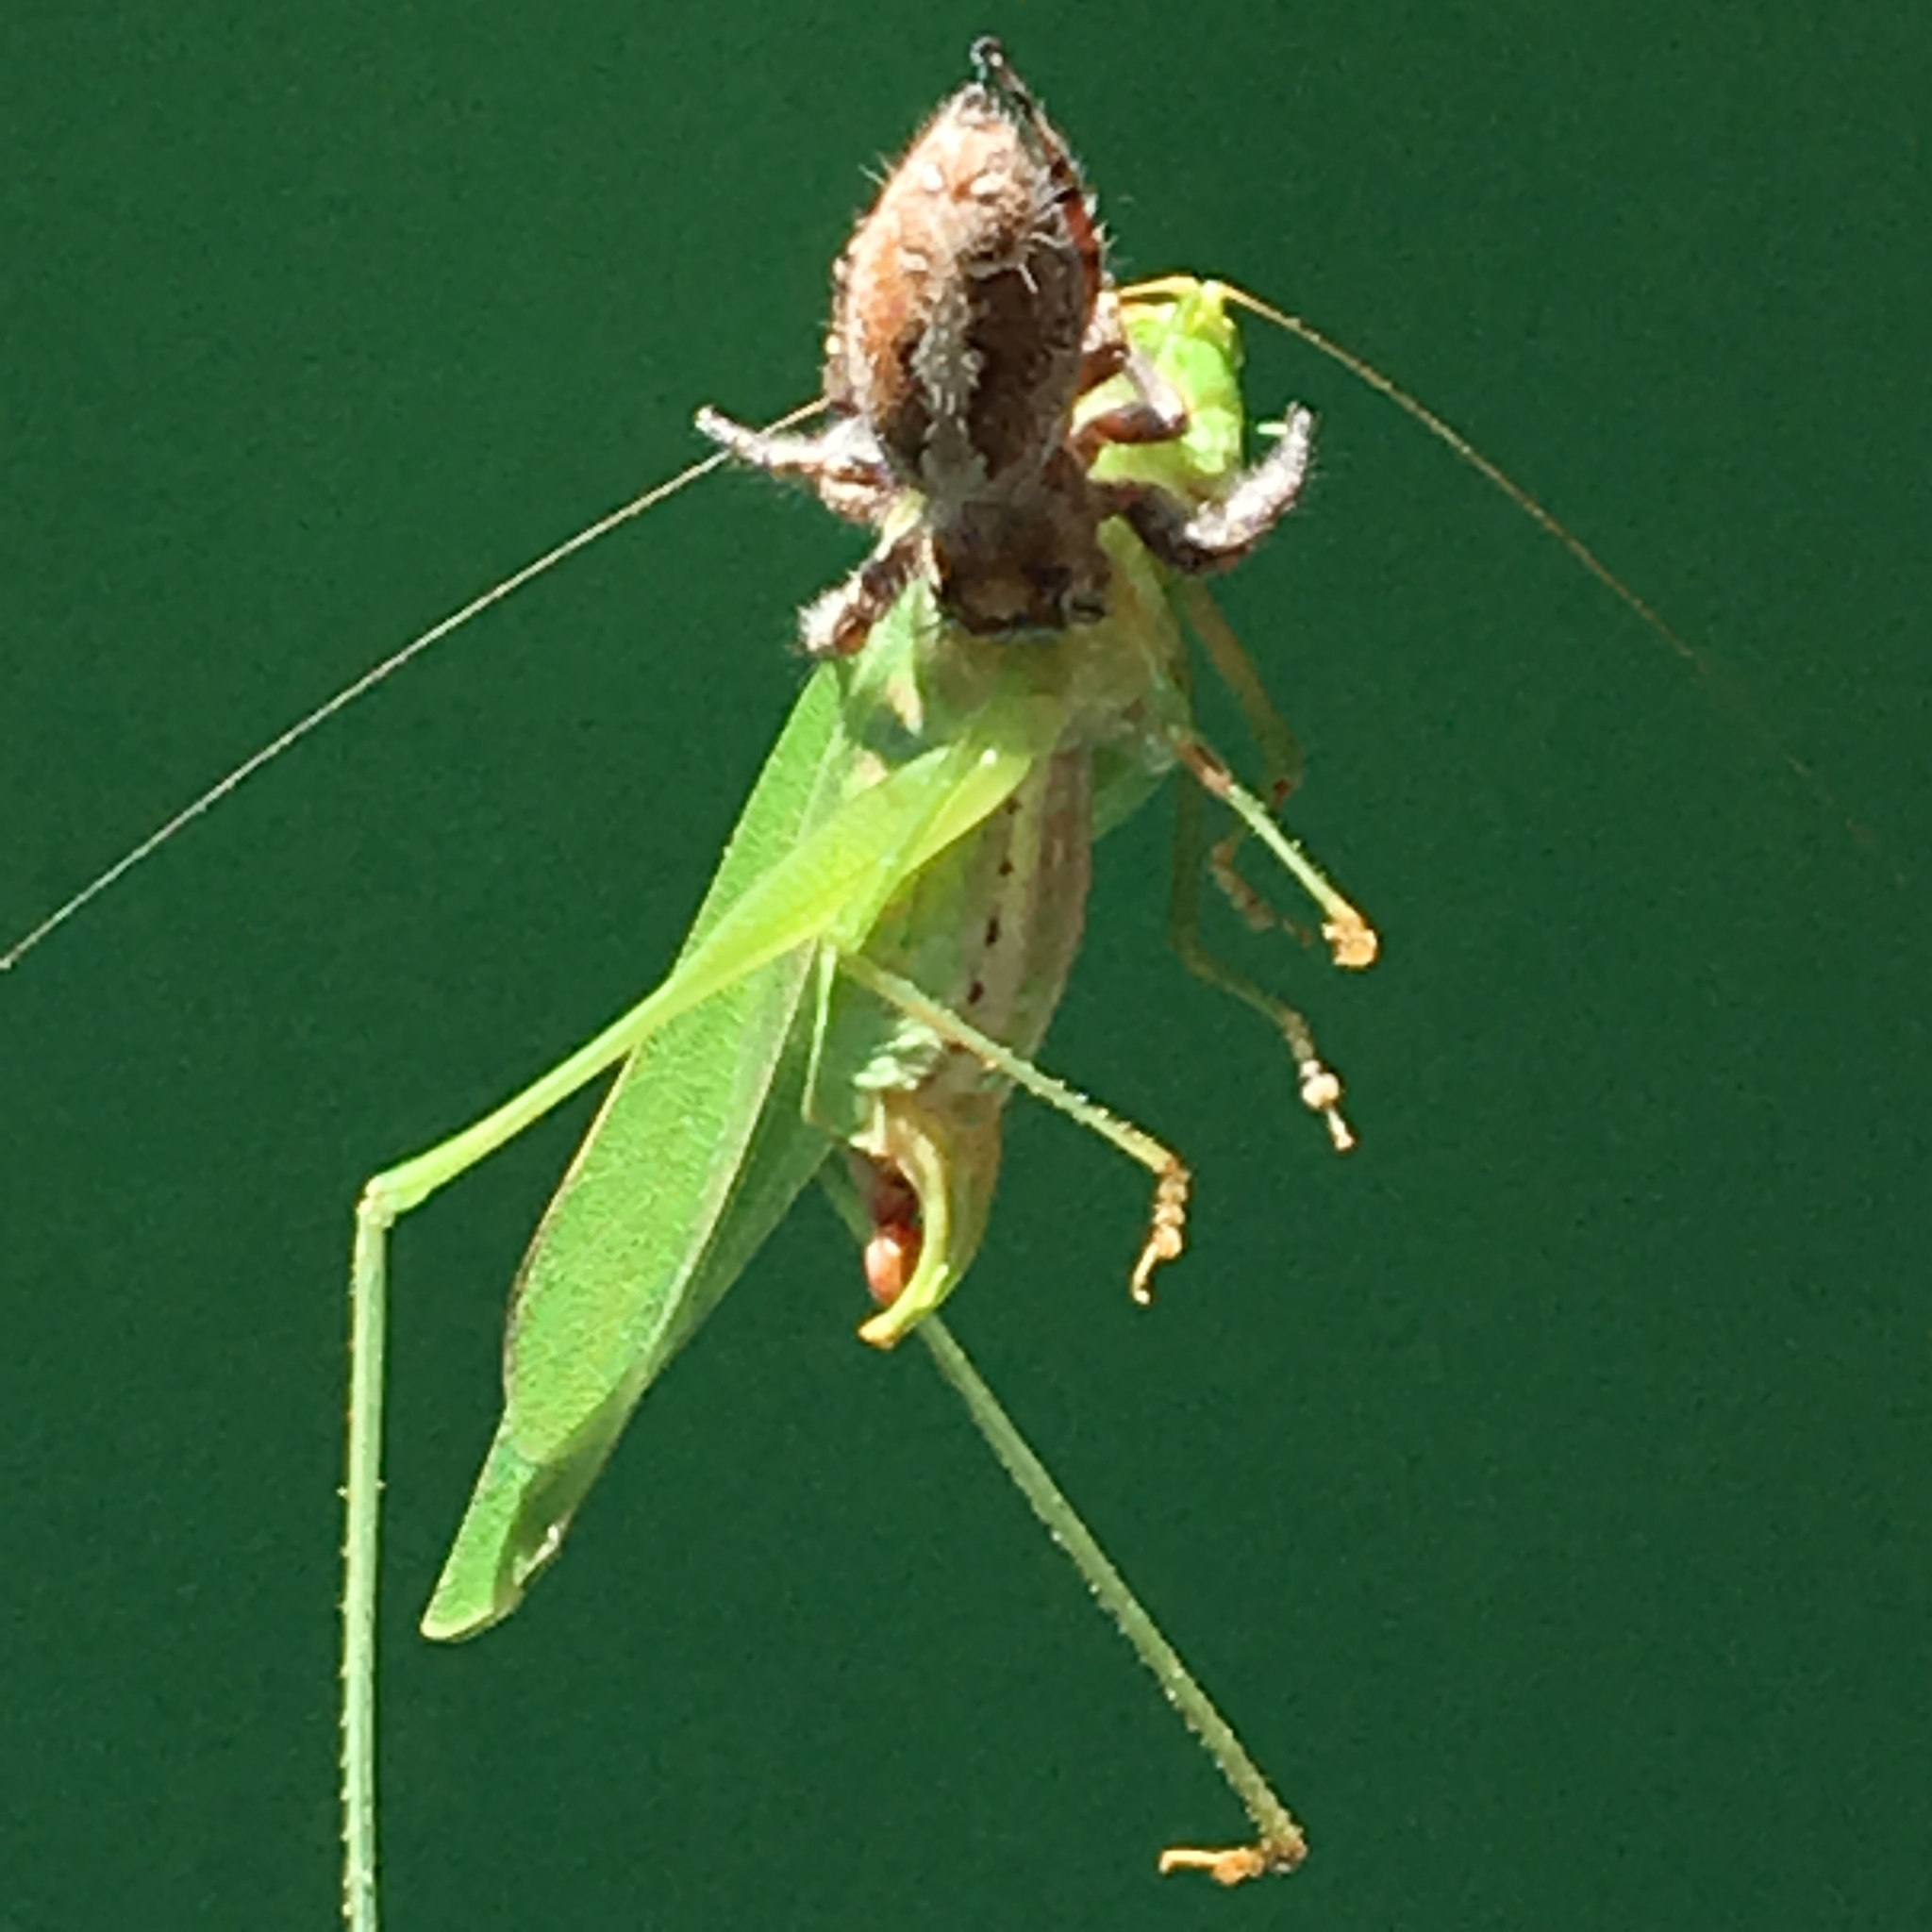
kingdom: Animalia
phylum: Arthropoda
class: Insecta
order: Orthoptera
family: Tettigoniidae
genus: Scudderia
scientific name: Scudderia furcata
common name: Fork-tailed bush katydid
